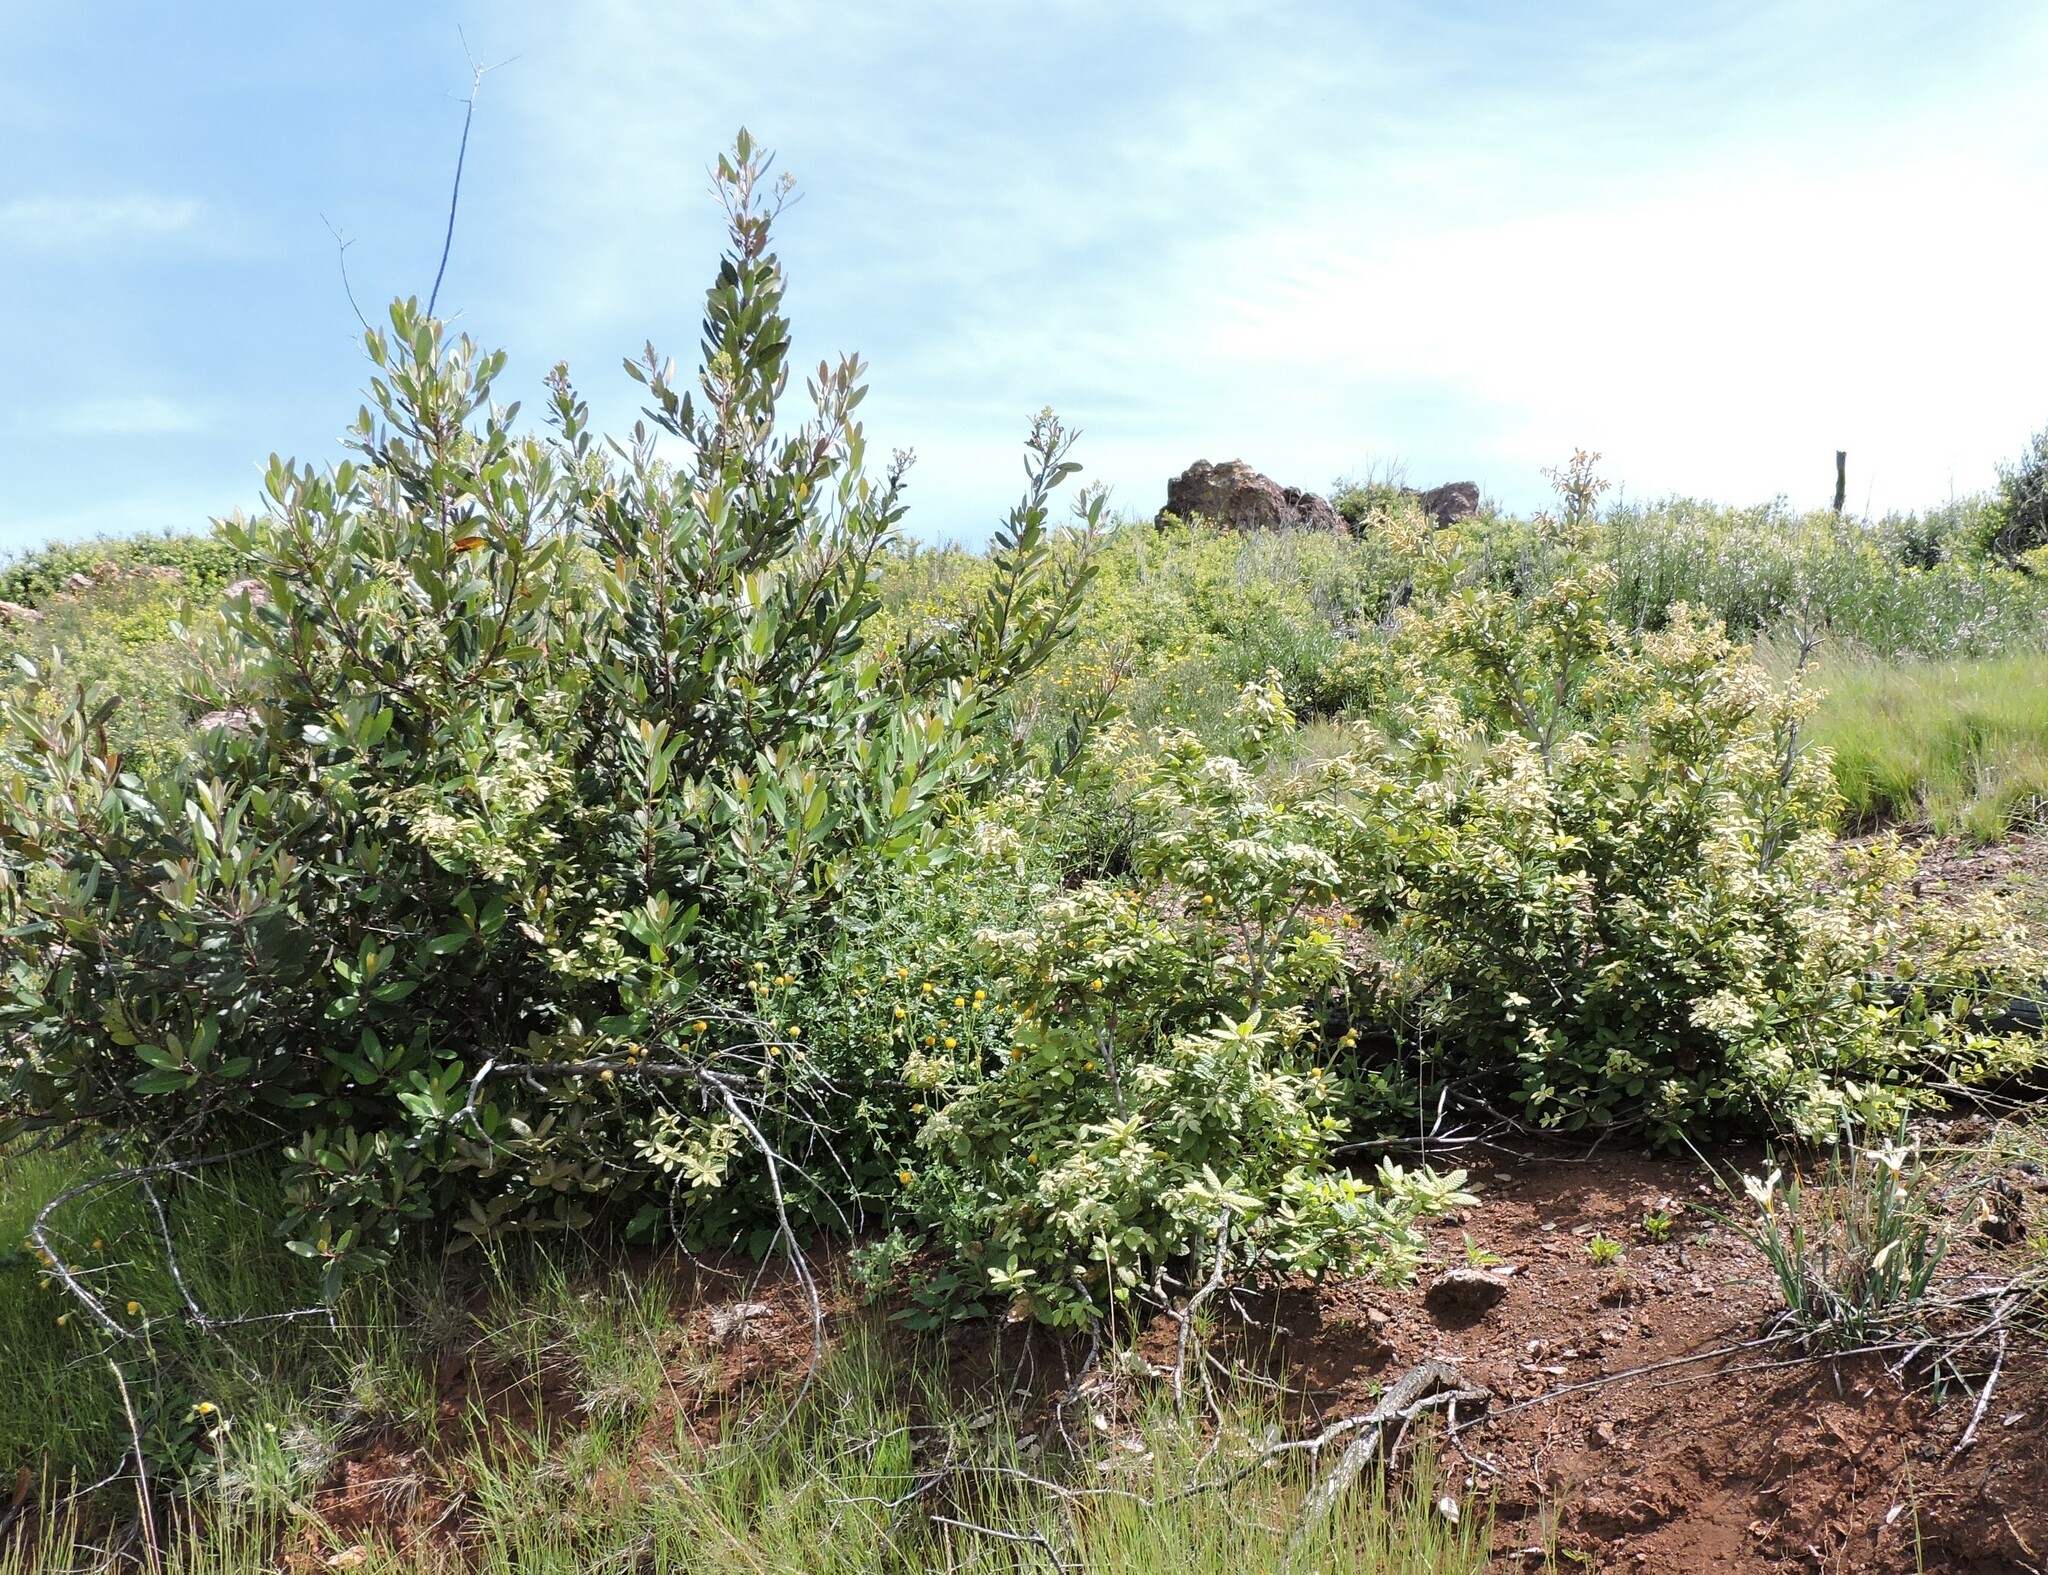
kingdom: Plantae
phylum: Tracheophyta
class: Magnoliopsida
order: Fagales
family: Fagaceae
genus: Notholithocarpus
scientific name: Notholithocarpus densiflorus
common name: Tan bark oak
